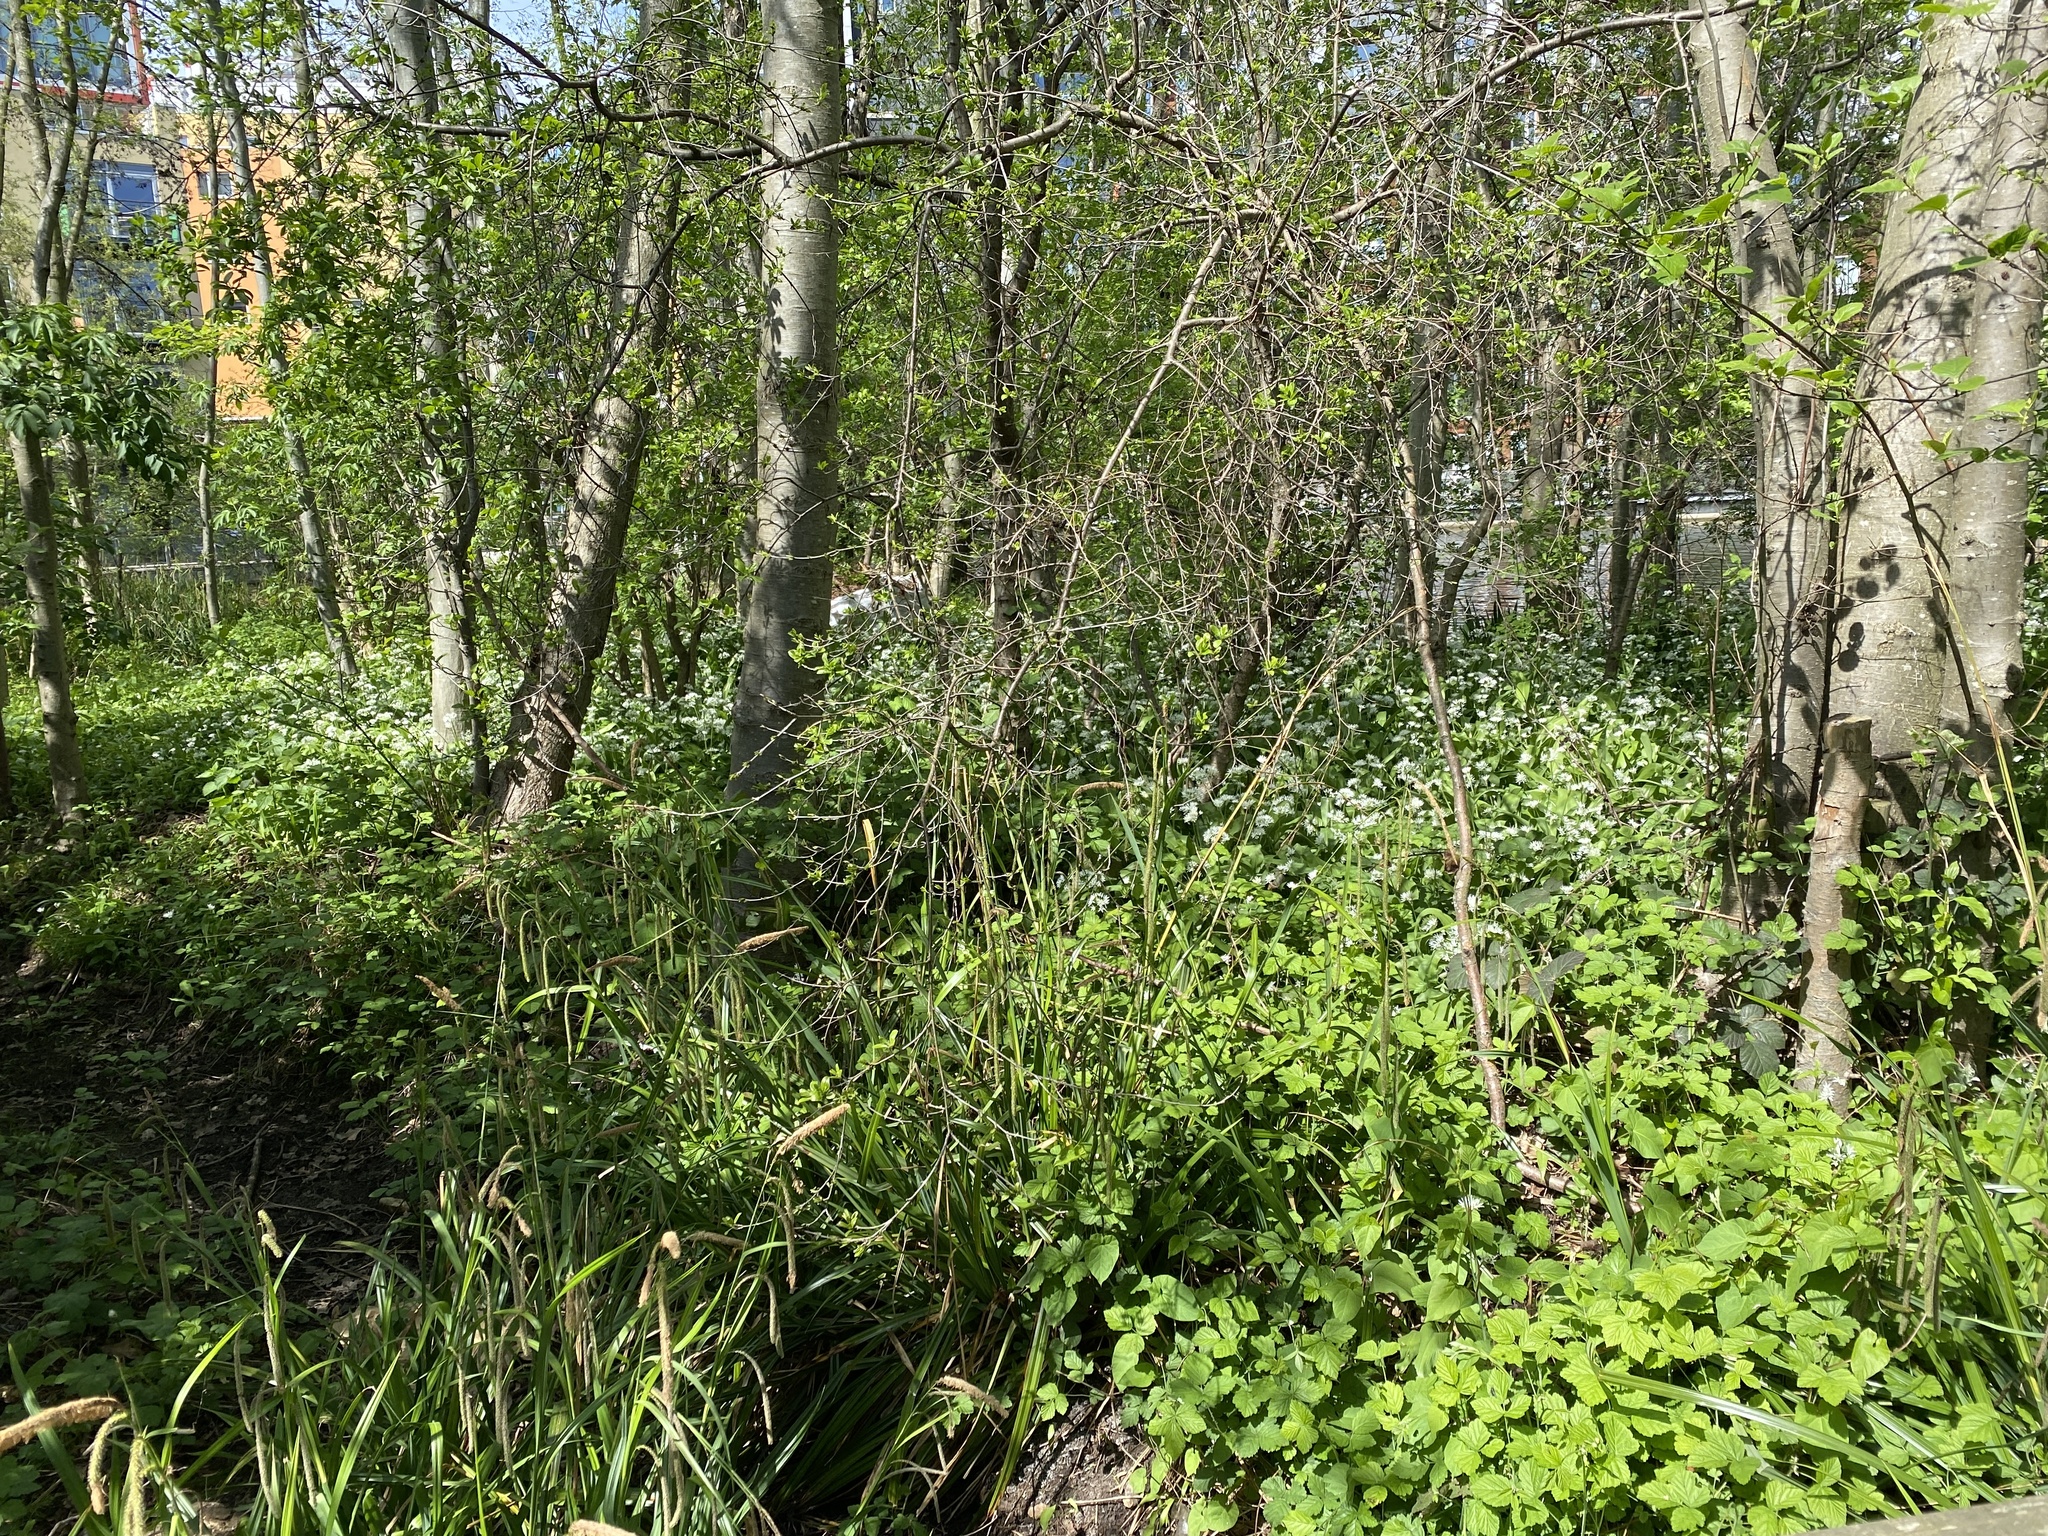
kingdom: Plantae
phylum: Tracheophyta
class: Liliopsida
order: Asparagales
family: Amaryllidaceae
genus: Allium
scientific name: Allium ursinum
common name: Ramsons
